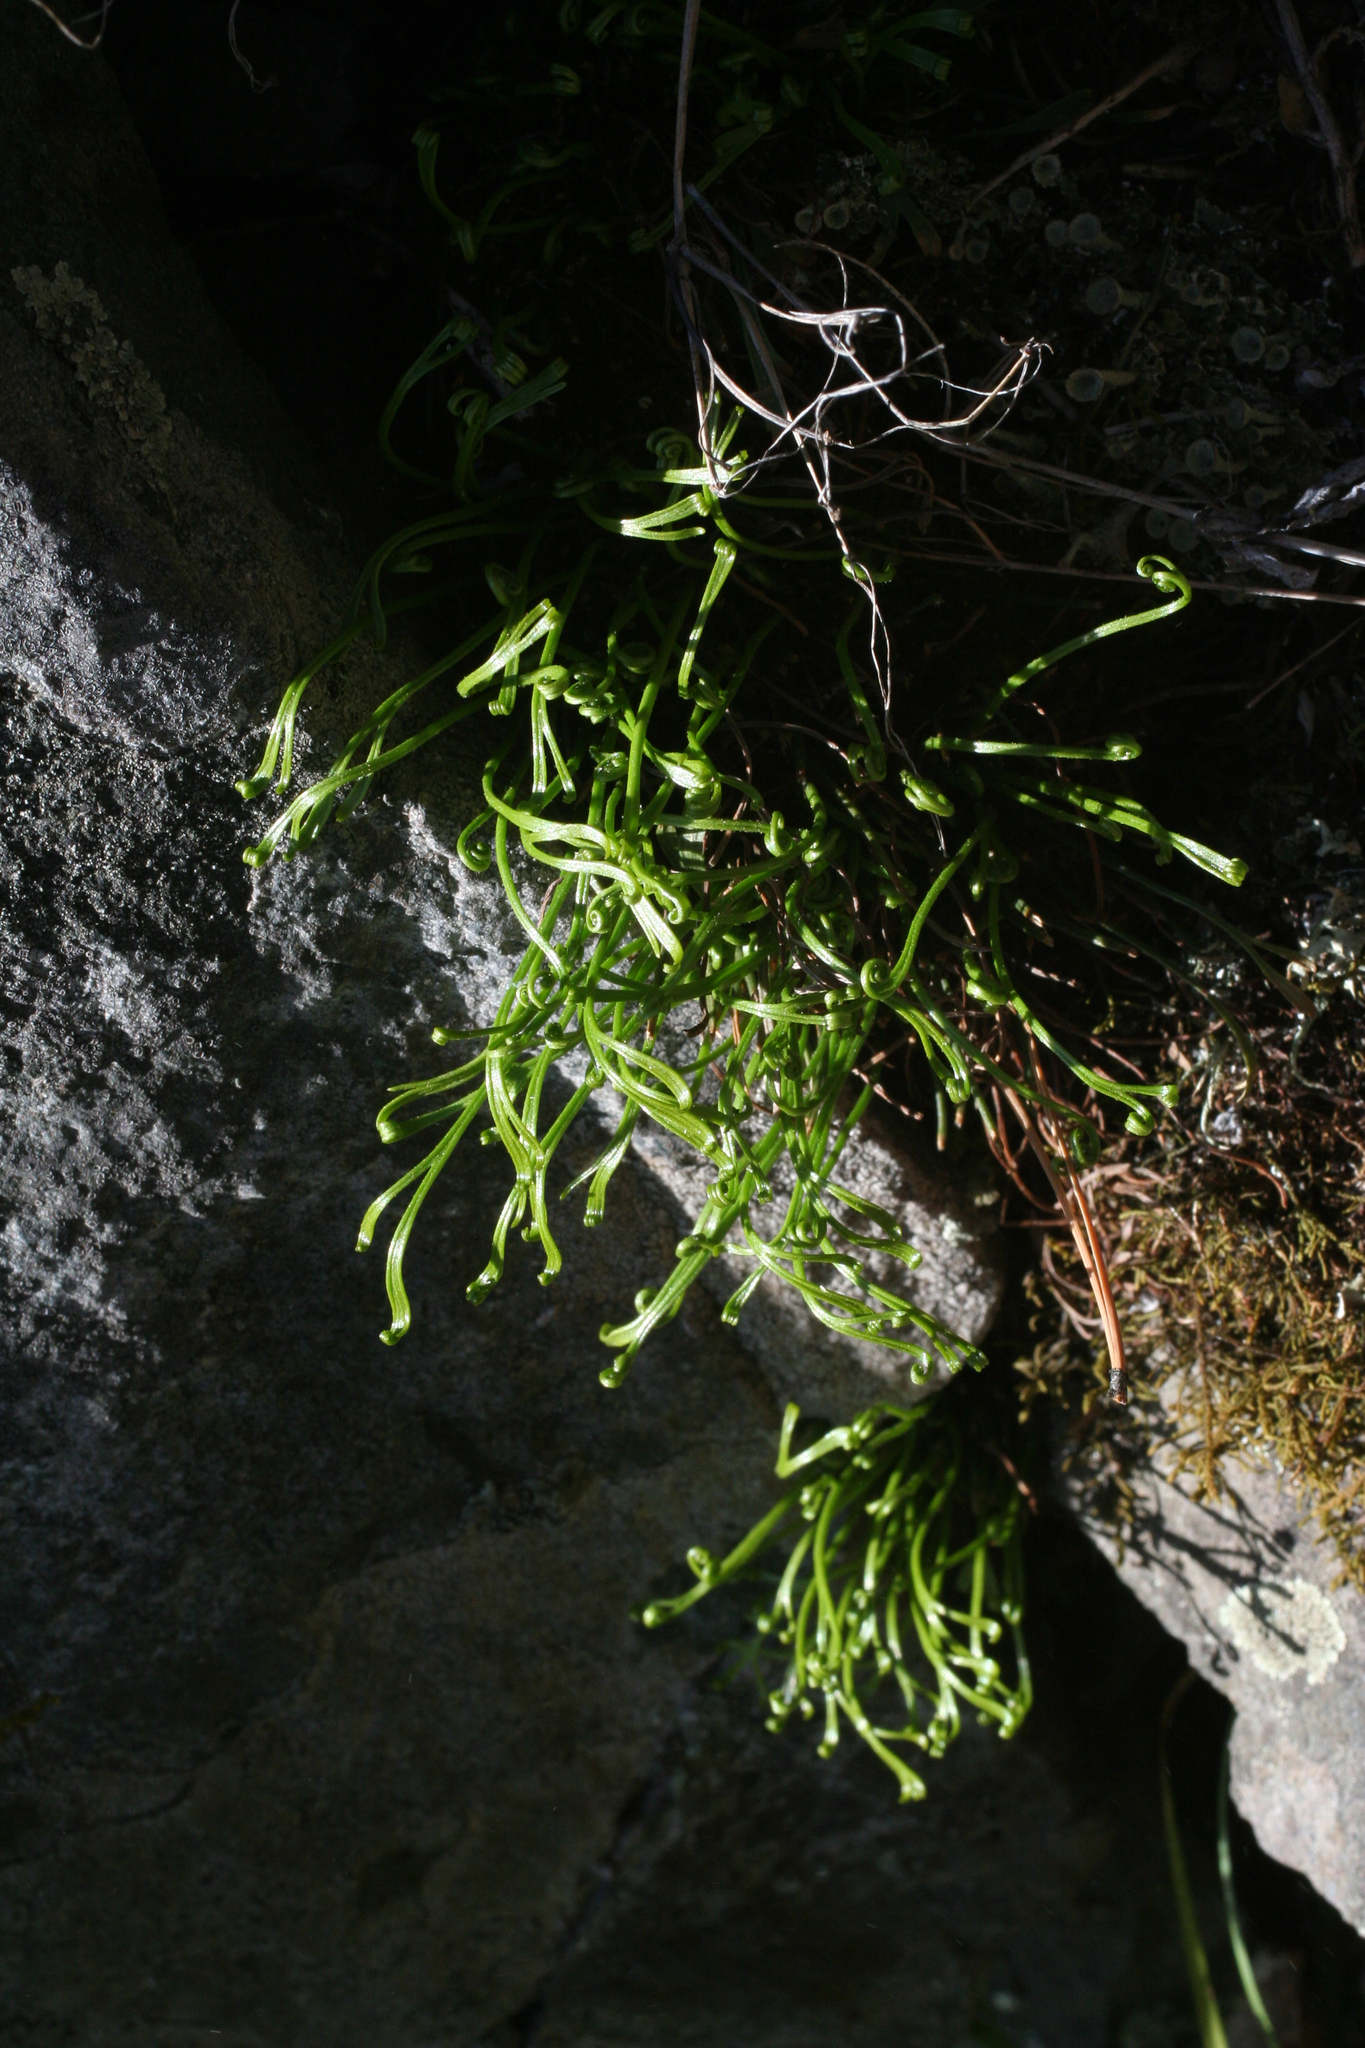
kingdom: Plantae
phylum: Tracheophyta
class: Polypodiopsida
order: Polypodiales
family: Aspleniaceae
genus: Asplenium
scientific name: Asplenium septentrionale
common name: Forked spleenwort
